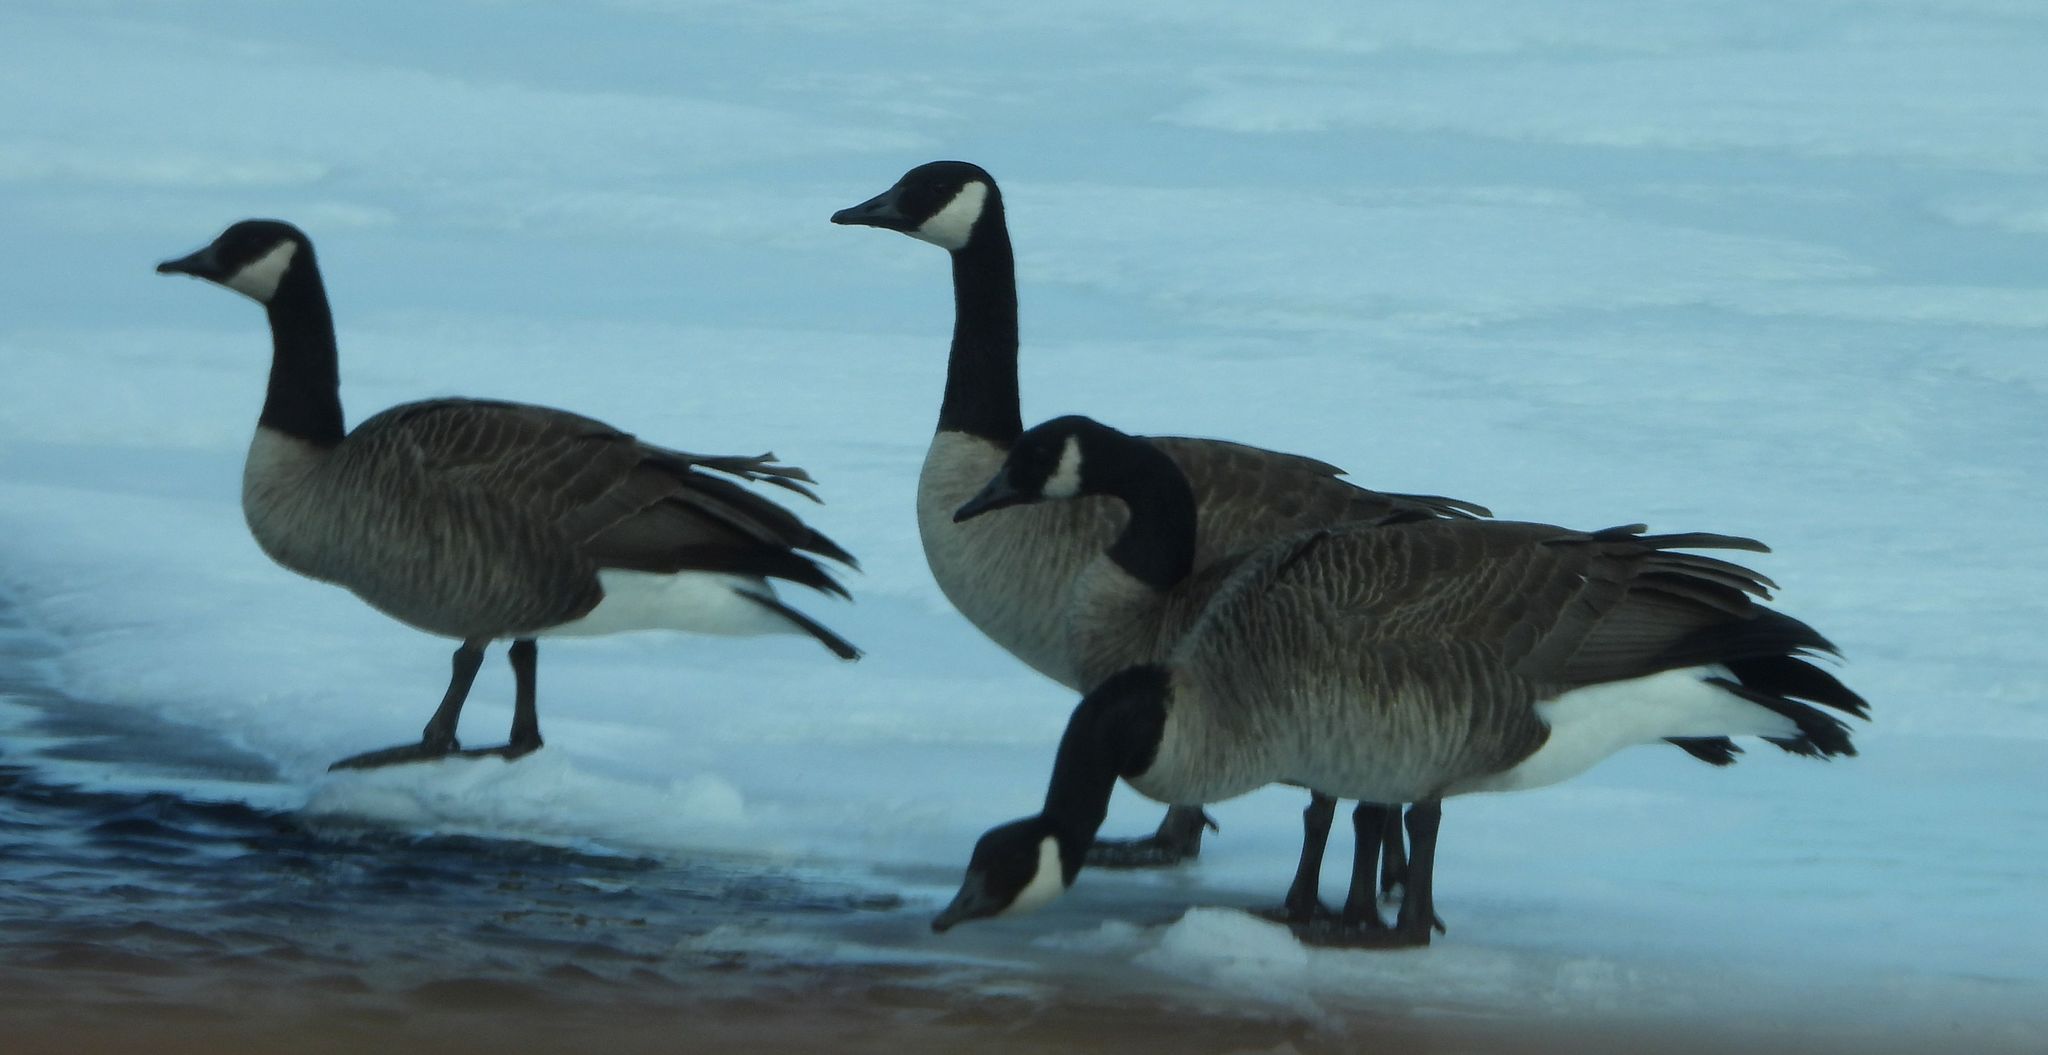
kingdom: Animalia
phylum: Chordata
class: Aves
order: Anseriformes
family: Anatidae
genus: Branta
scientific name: Branta canadensis
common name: Canada goose
